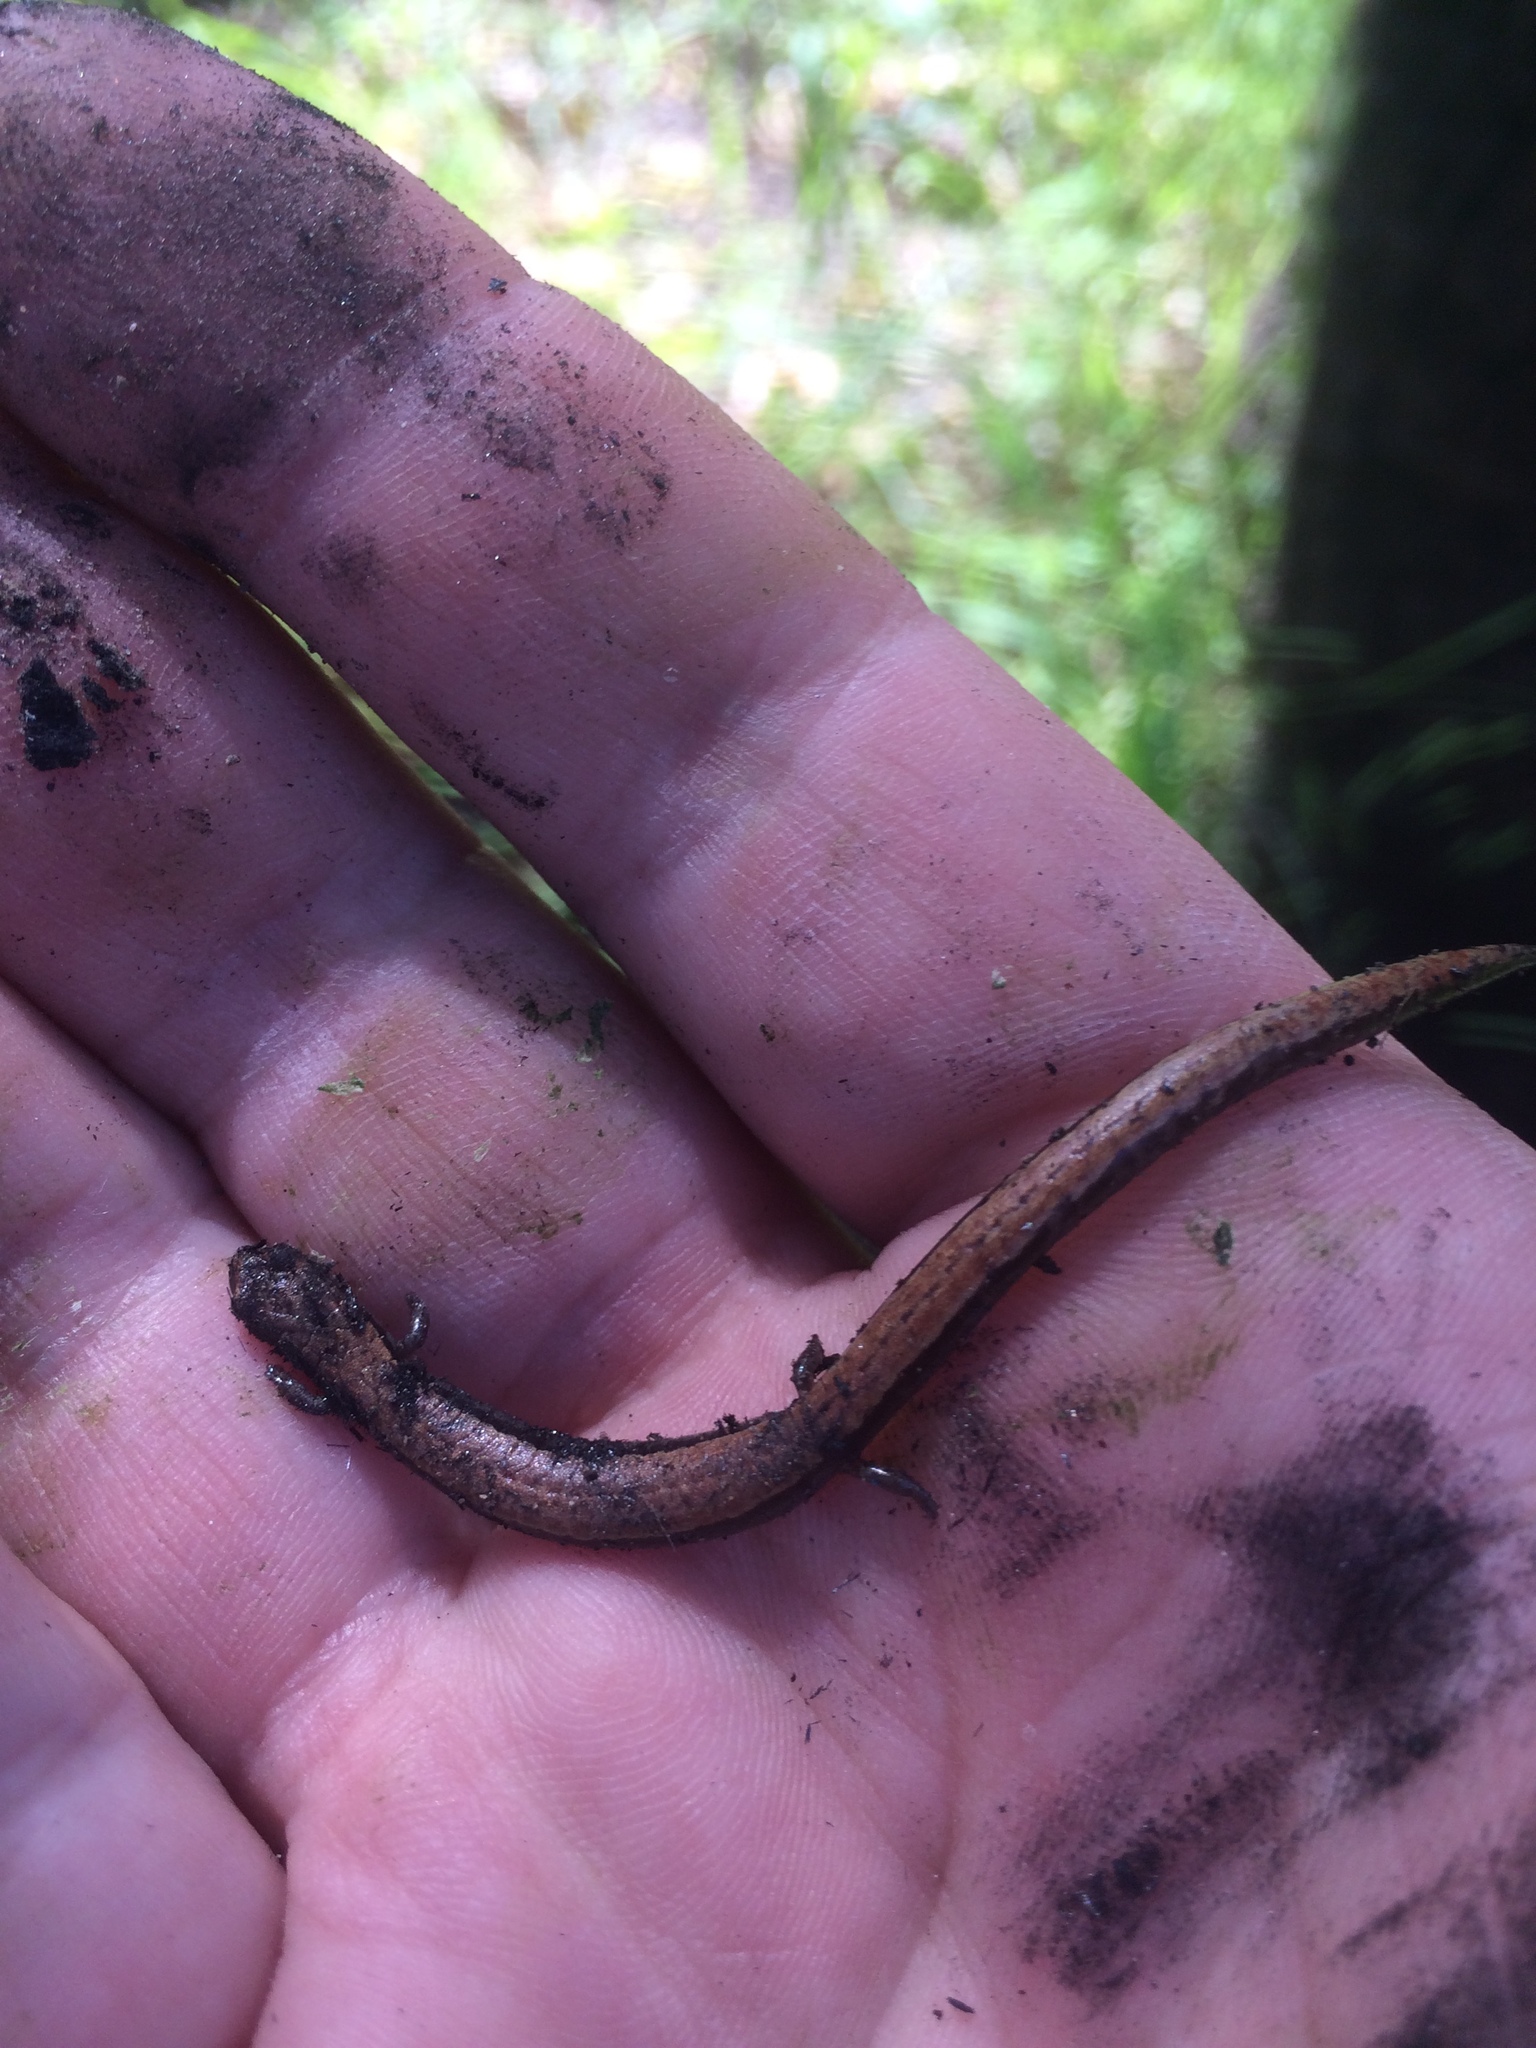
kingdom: Animalia
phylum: Chordata
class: Amphibia
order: Caudata
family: Plethodontidae
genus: Batrachoseps
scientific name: Batrachoseps attenuatus
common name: California slender salamander
